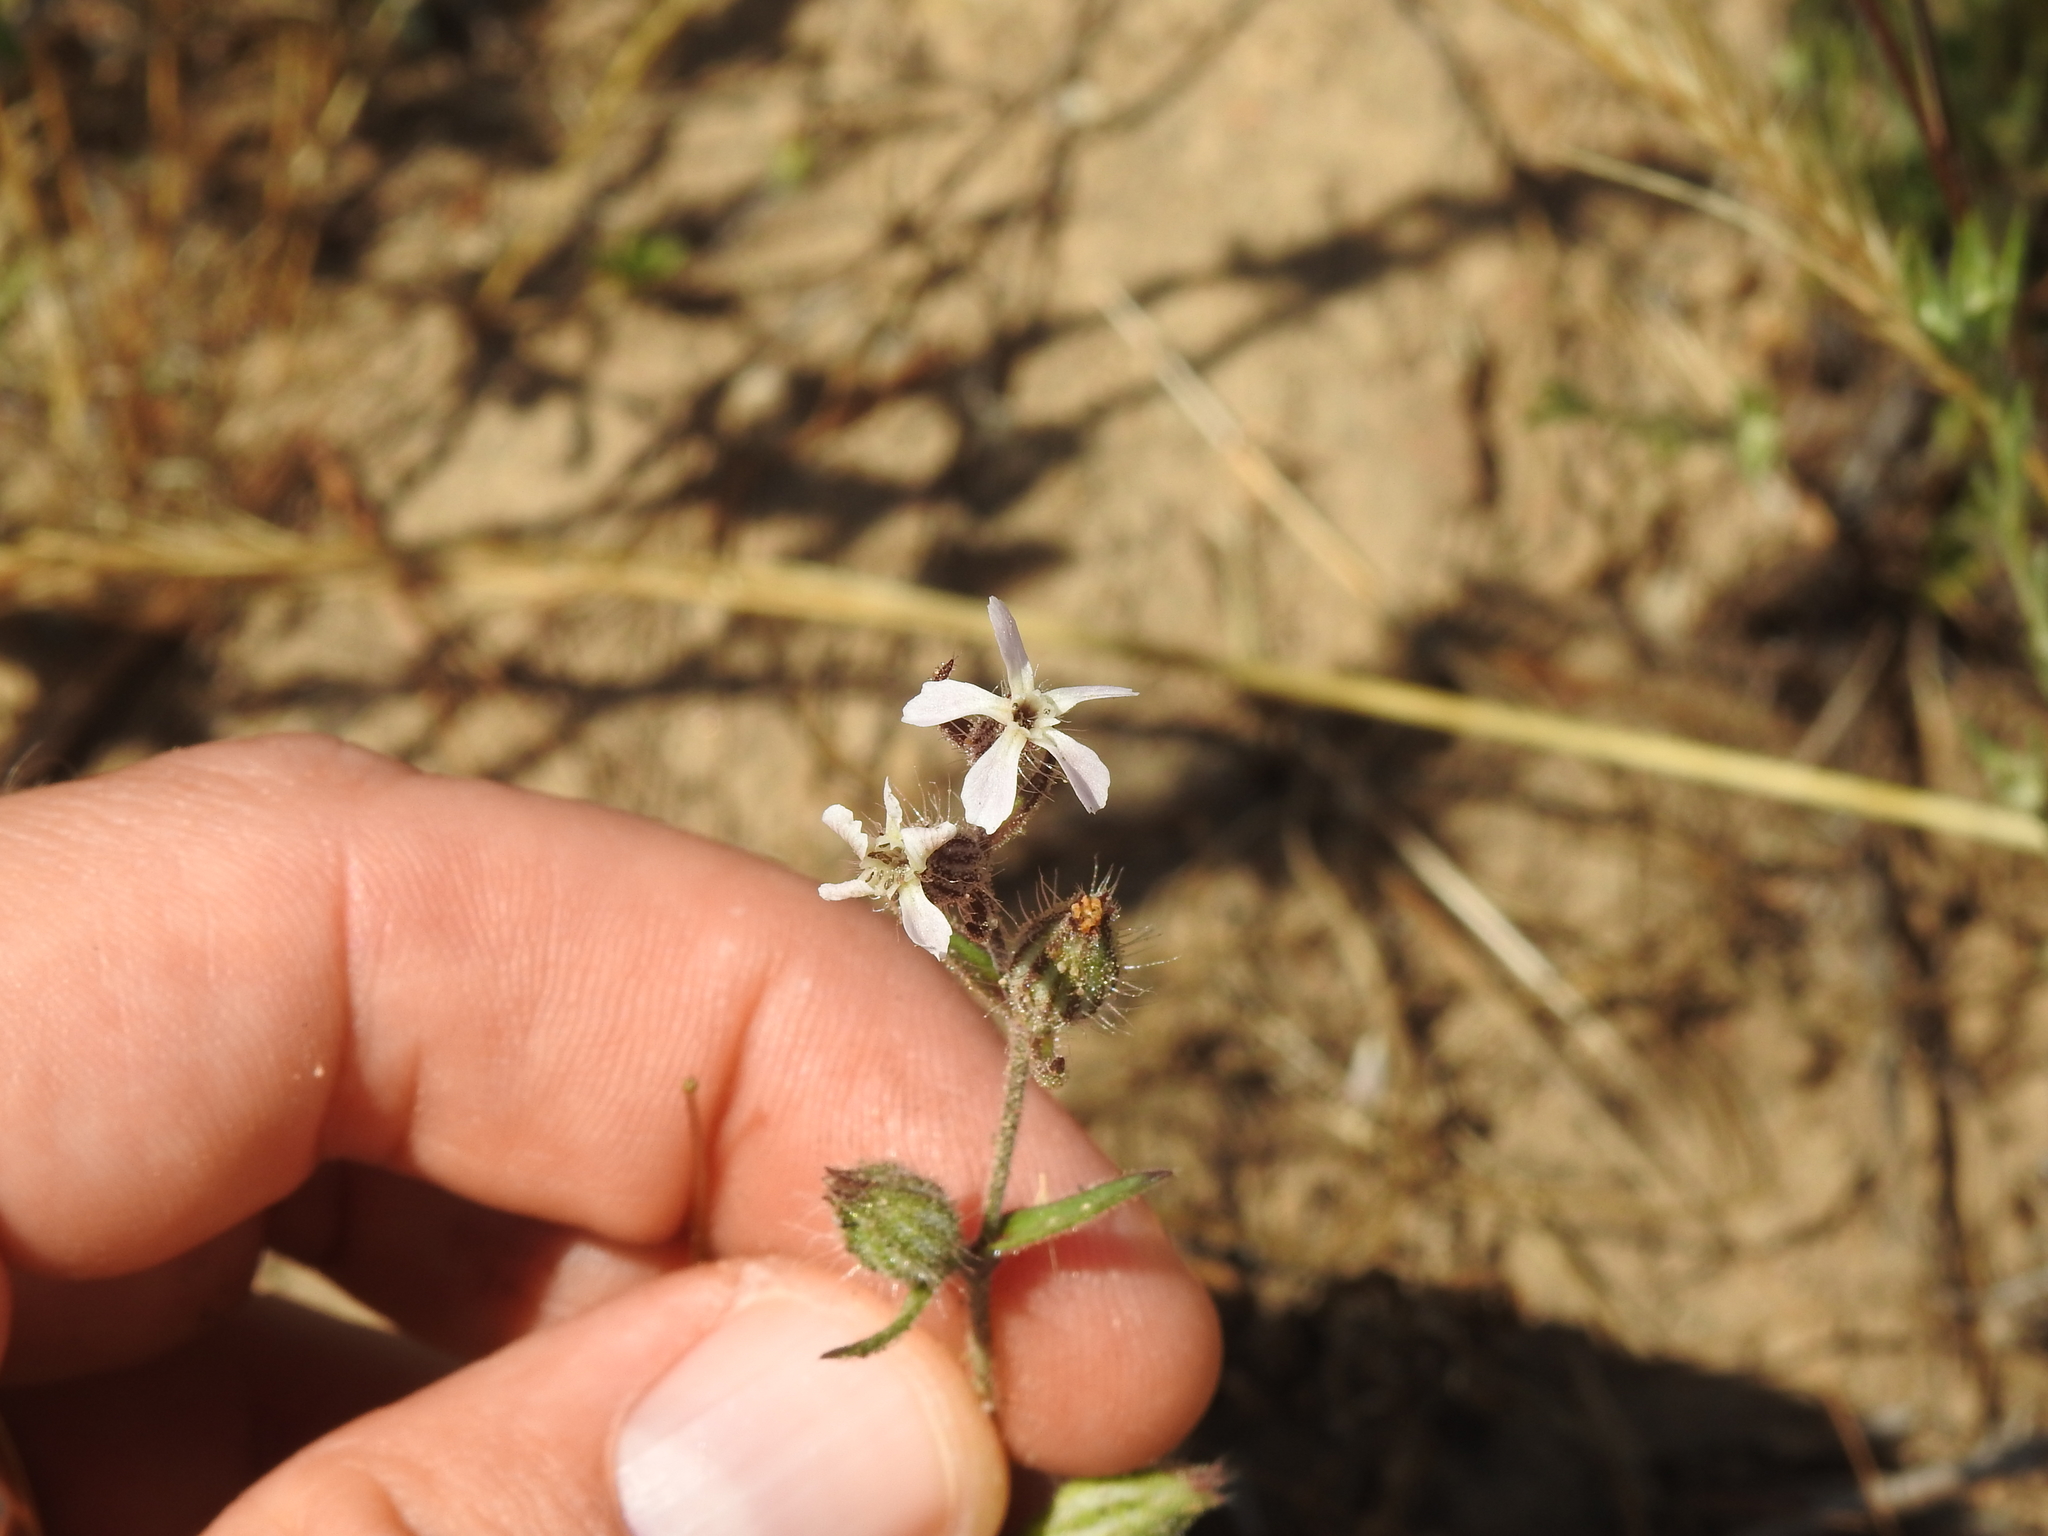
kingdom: Plantae
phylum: Tracheophyta
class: Magnoliopsida
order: Caryophyllales
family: Caryophyllaceae
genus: Silene
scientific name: Silene gallica
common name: Small-flowered catchfly
